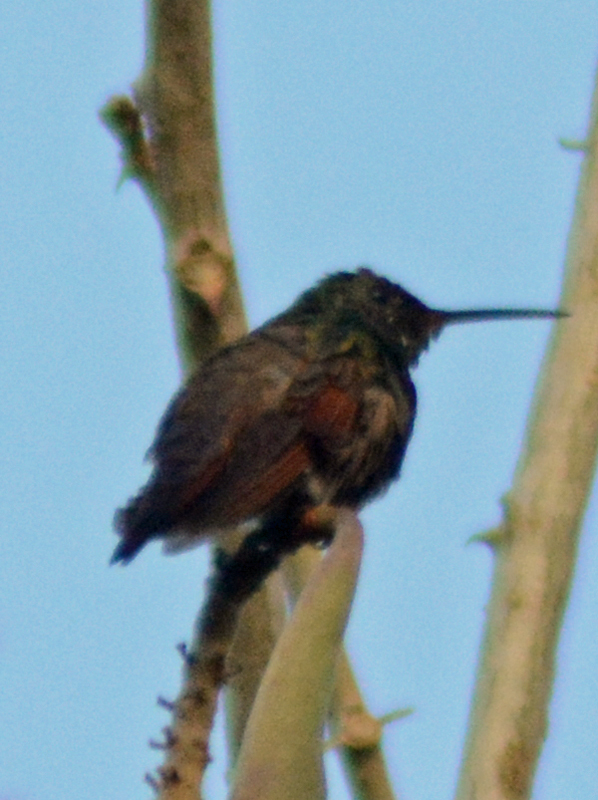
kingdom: Animalia
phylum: Chordata
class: Aves
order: Apodiformes
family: Trochilidae
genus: Saucerottia
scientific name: Saucerottia beryllina
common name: Berylline hummingbird
